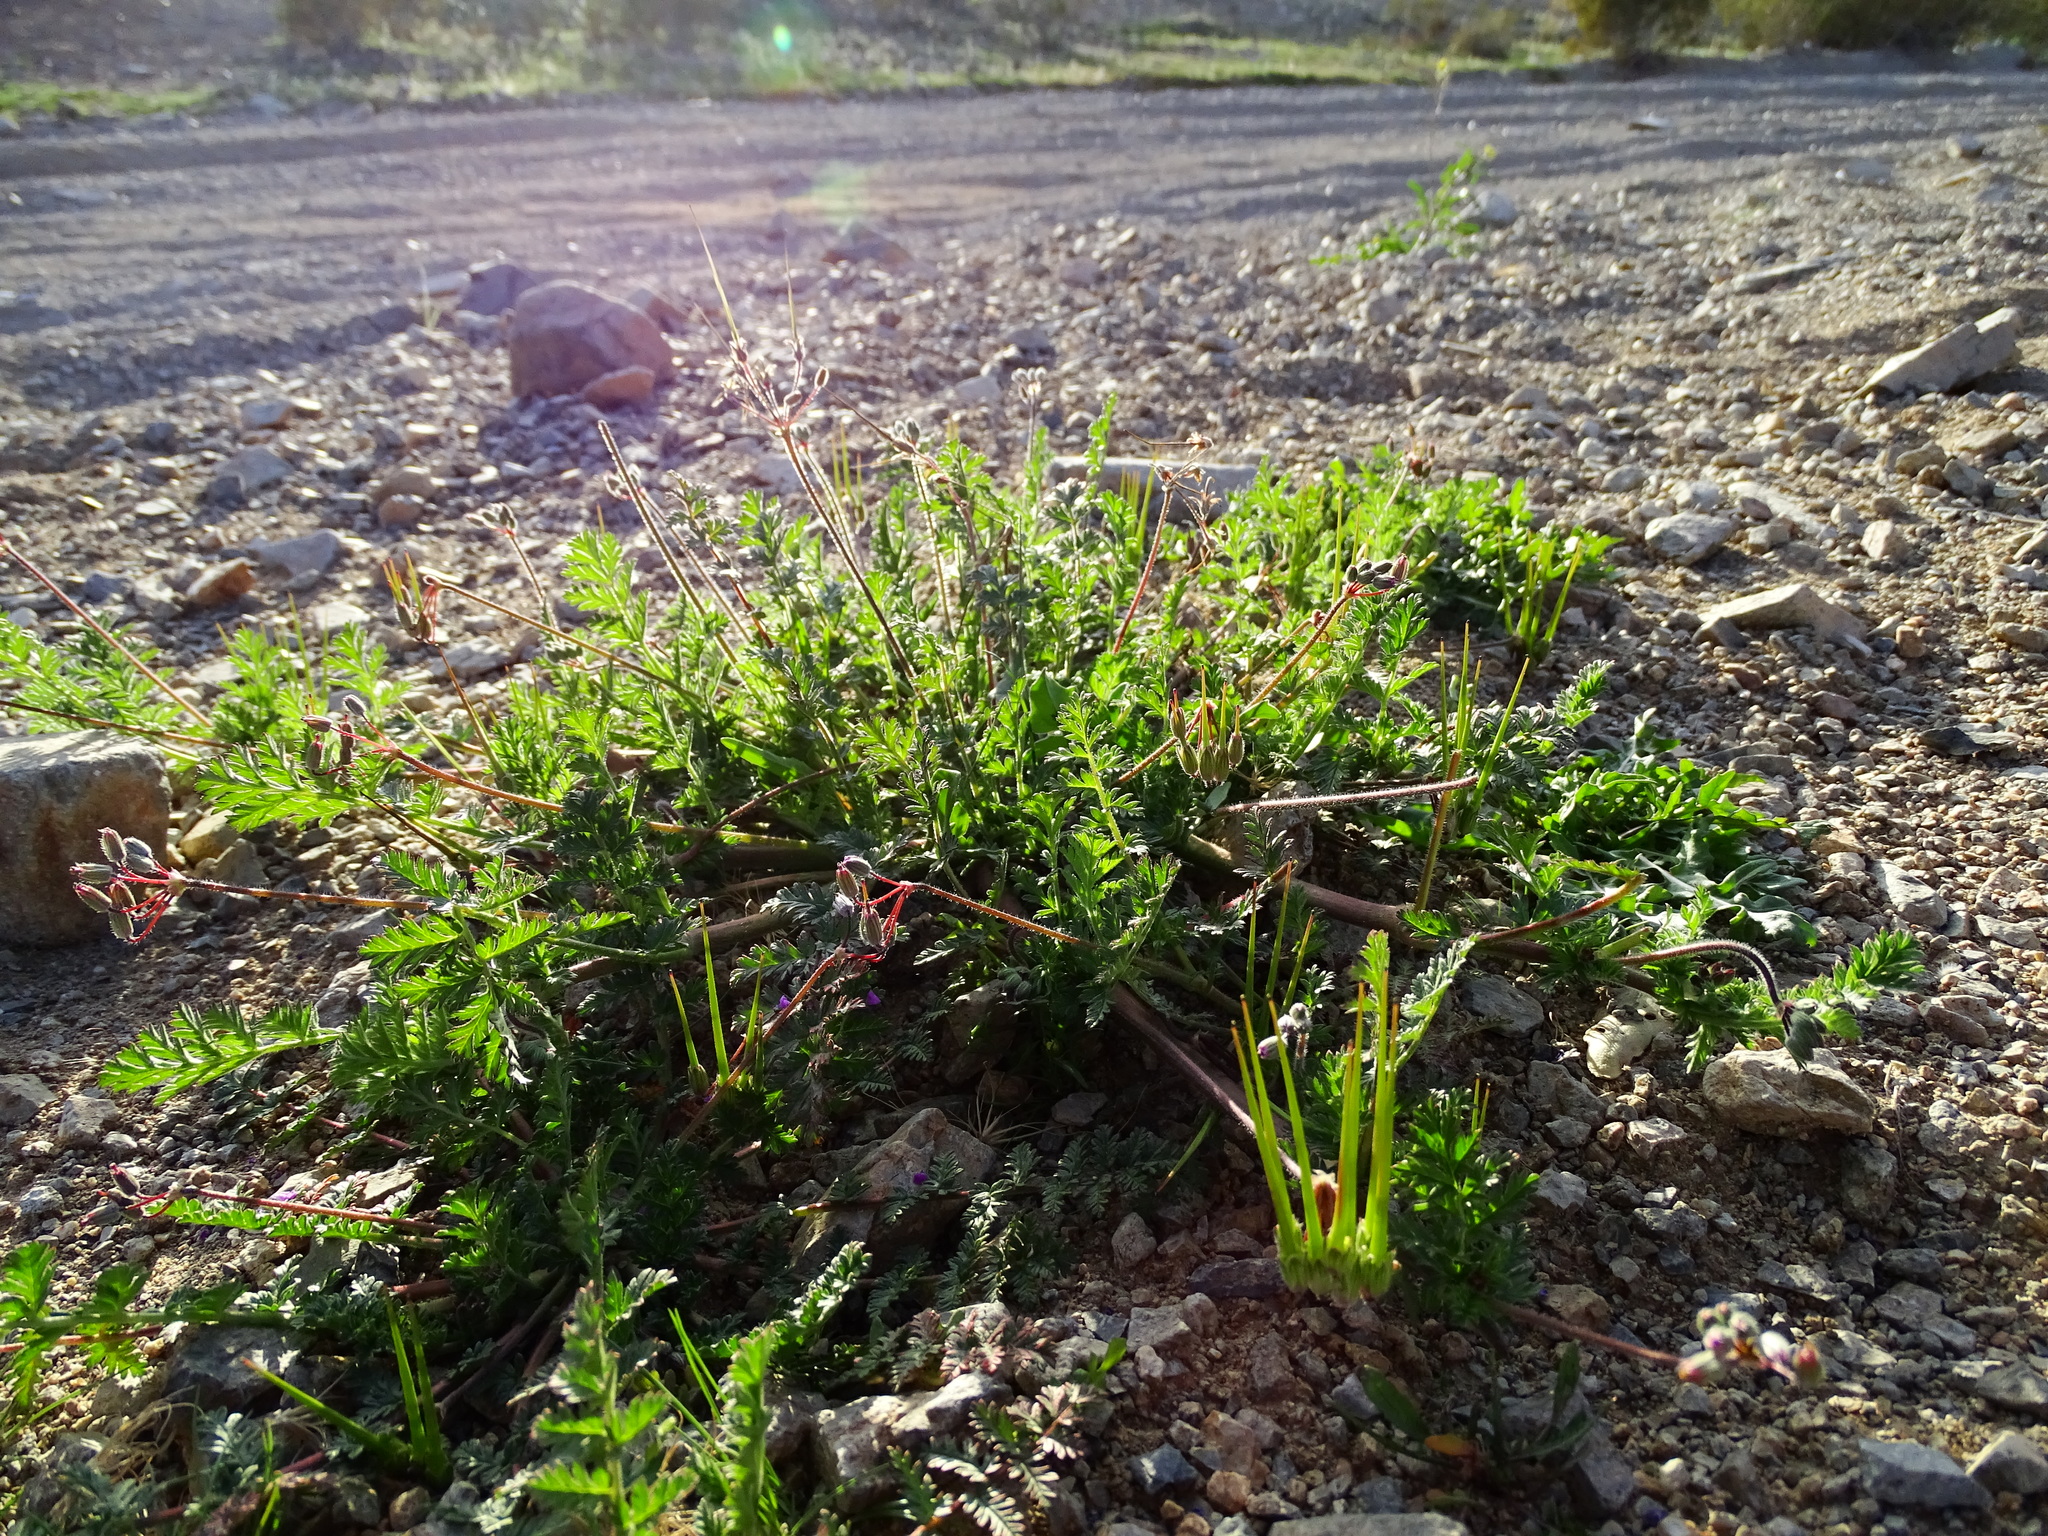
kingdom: Plantae
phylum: Tracheophyta
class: Magnoliopsida
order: Geraniales
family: Geraniaceae
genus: Erodium
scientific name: Erodium cicutarium
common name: Common stork's-bill
